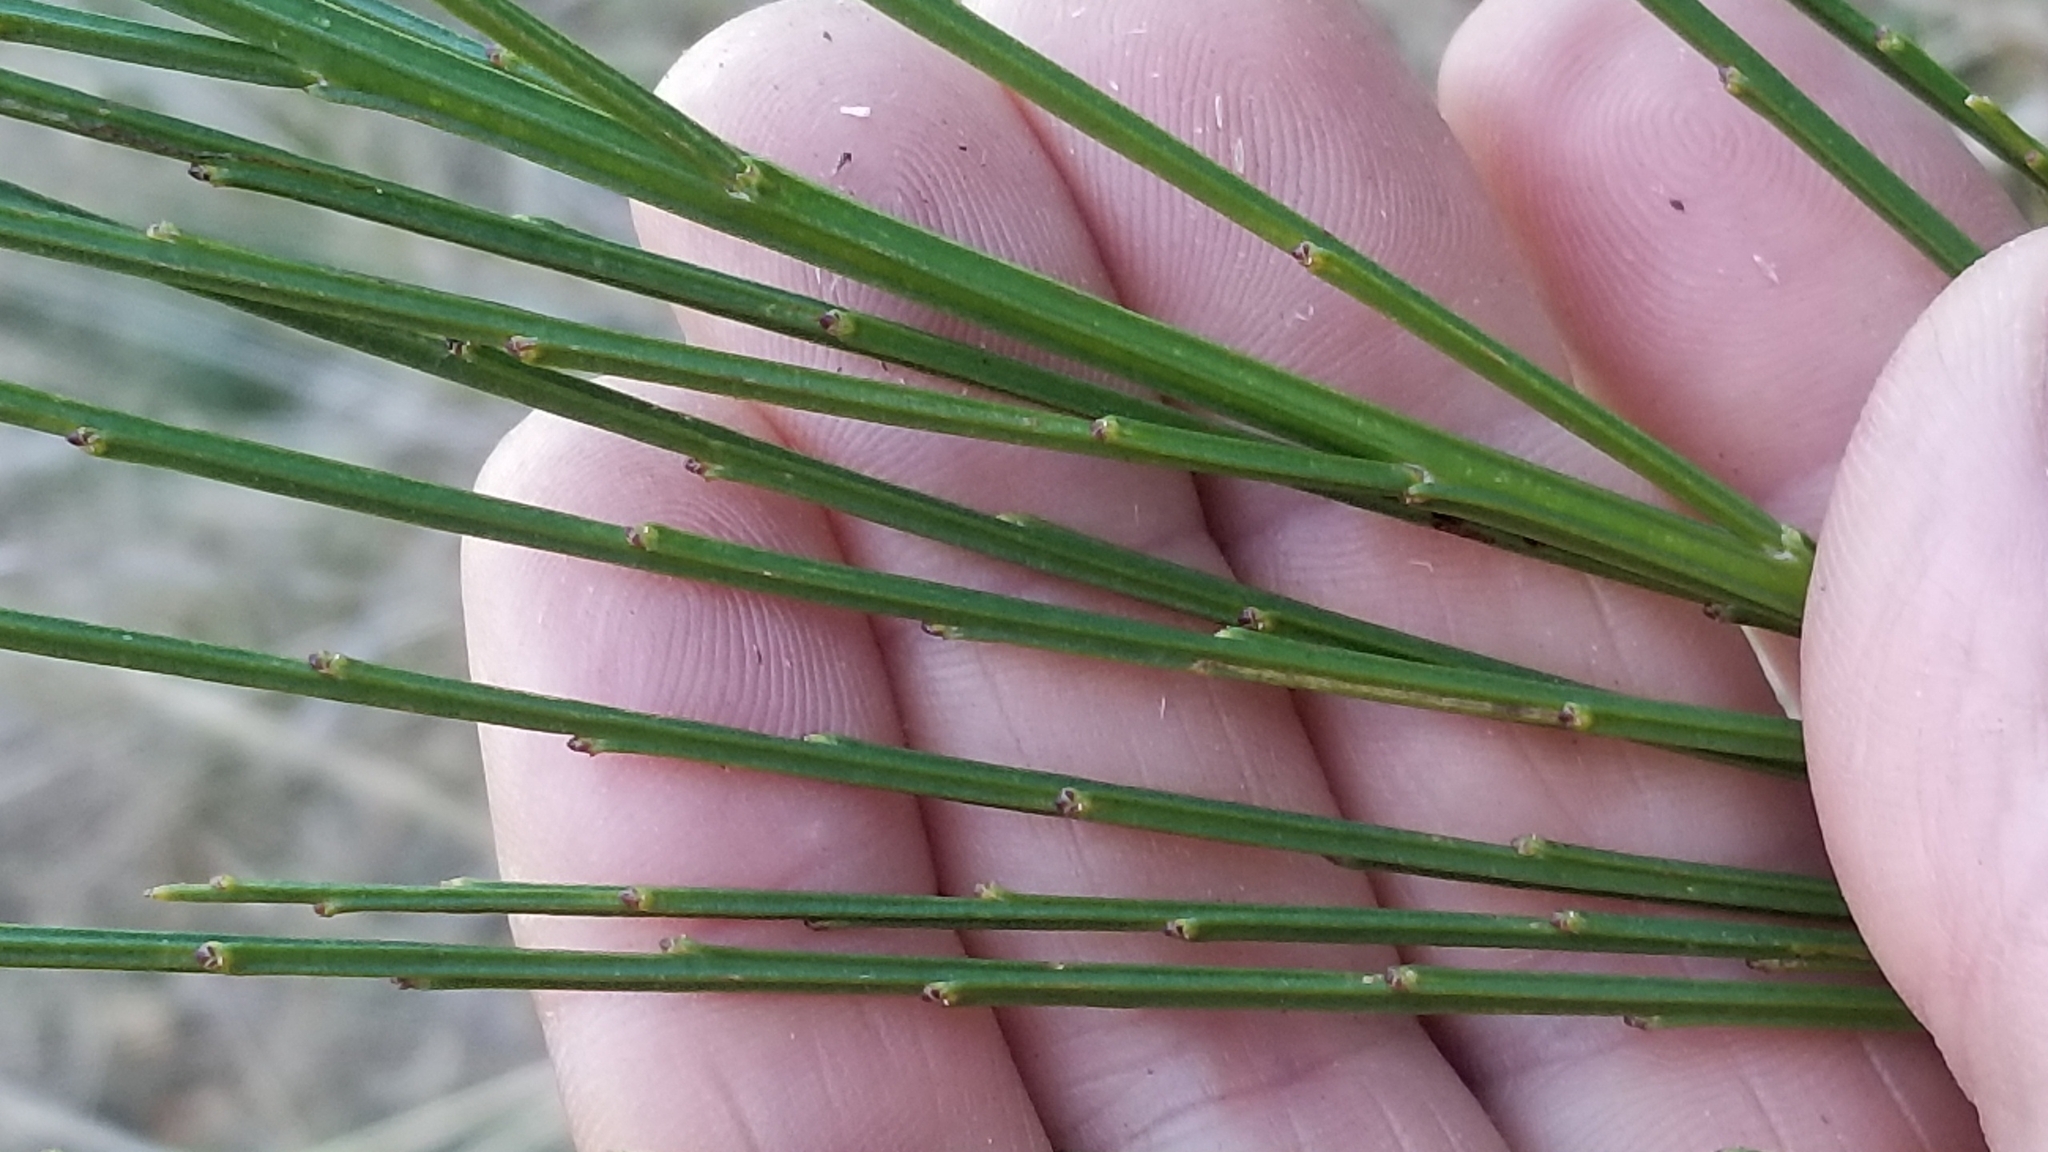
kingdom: Plantae
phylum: Tracheophyta
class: Magnoliopsida
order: Fabales
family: Fabaceae
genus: Cytisus
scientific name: Cytisus scoparius
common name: Scotch broom
